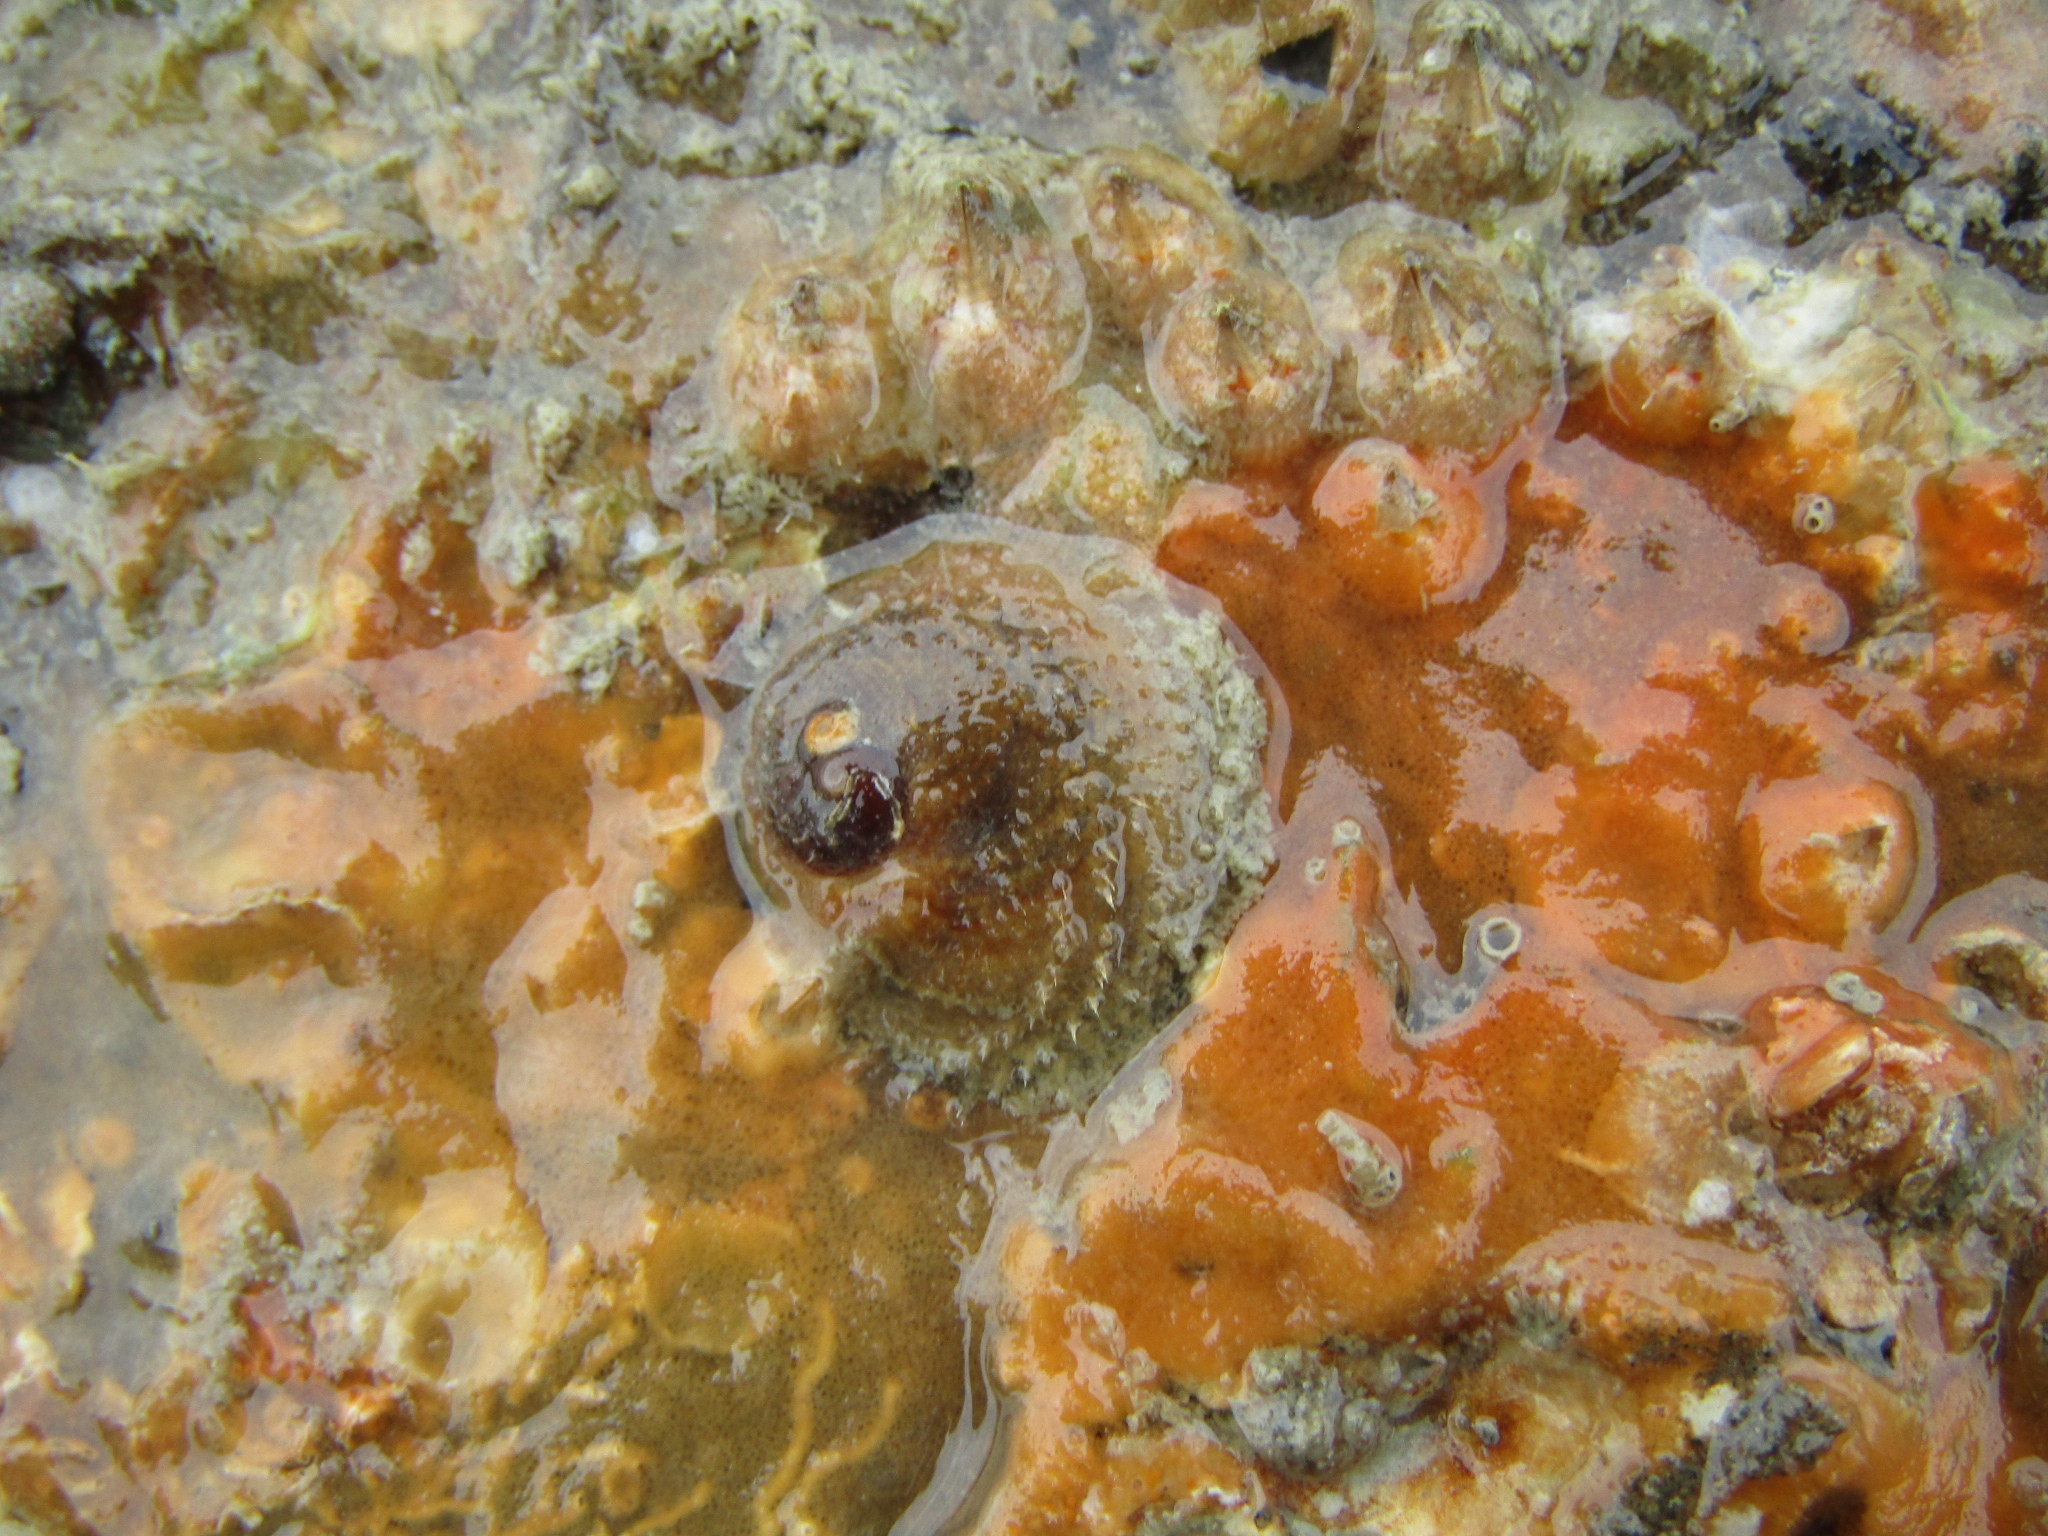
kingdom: Animalia
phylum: Mollusca
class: Gastropoda
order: Littorinimorpha
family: Calyptraeidae
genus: Sigapatella
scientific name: Sigapatella novaezelandiae
